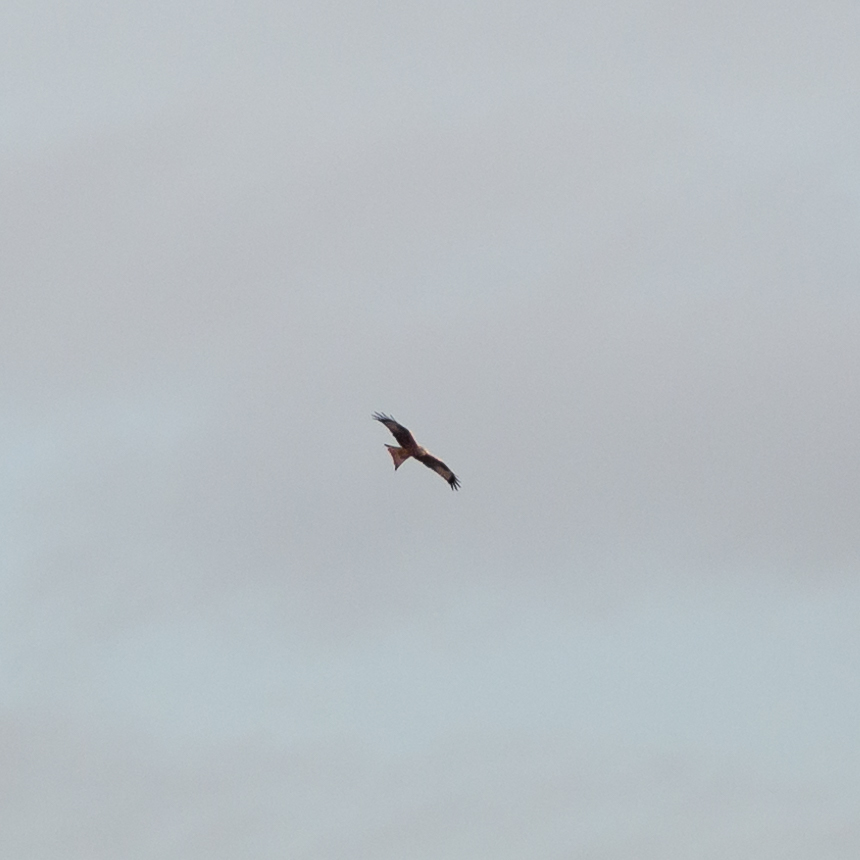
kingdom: Animalia
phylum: Chordata
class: Aves
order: Accipitriformes
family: Accipitridae
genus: Milvus
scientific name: Milvus milvus
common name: Red kite
